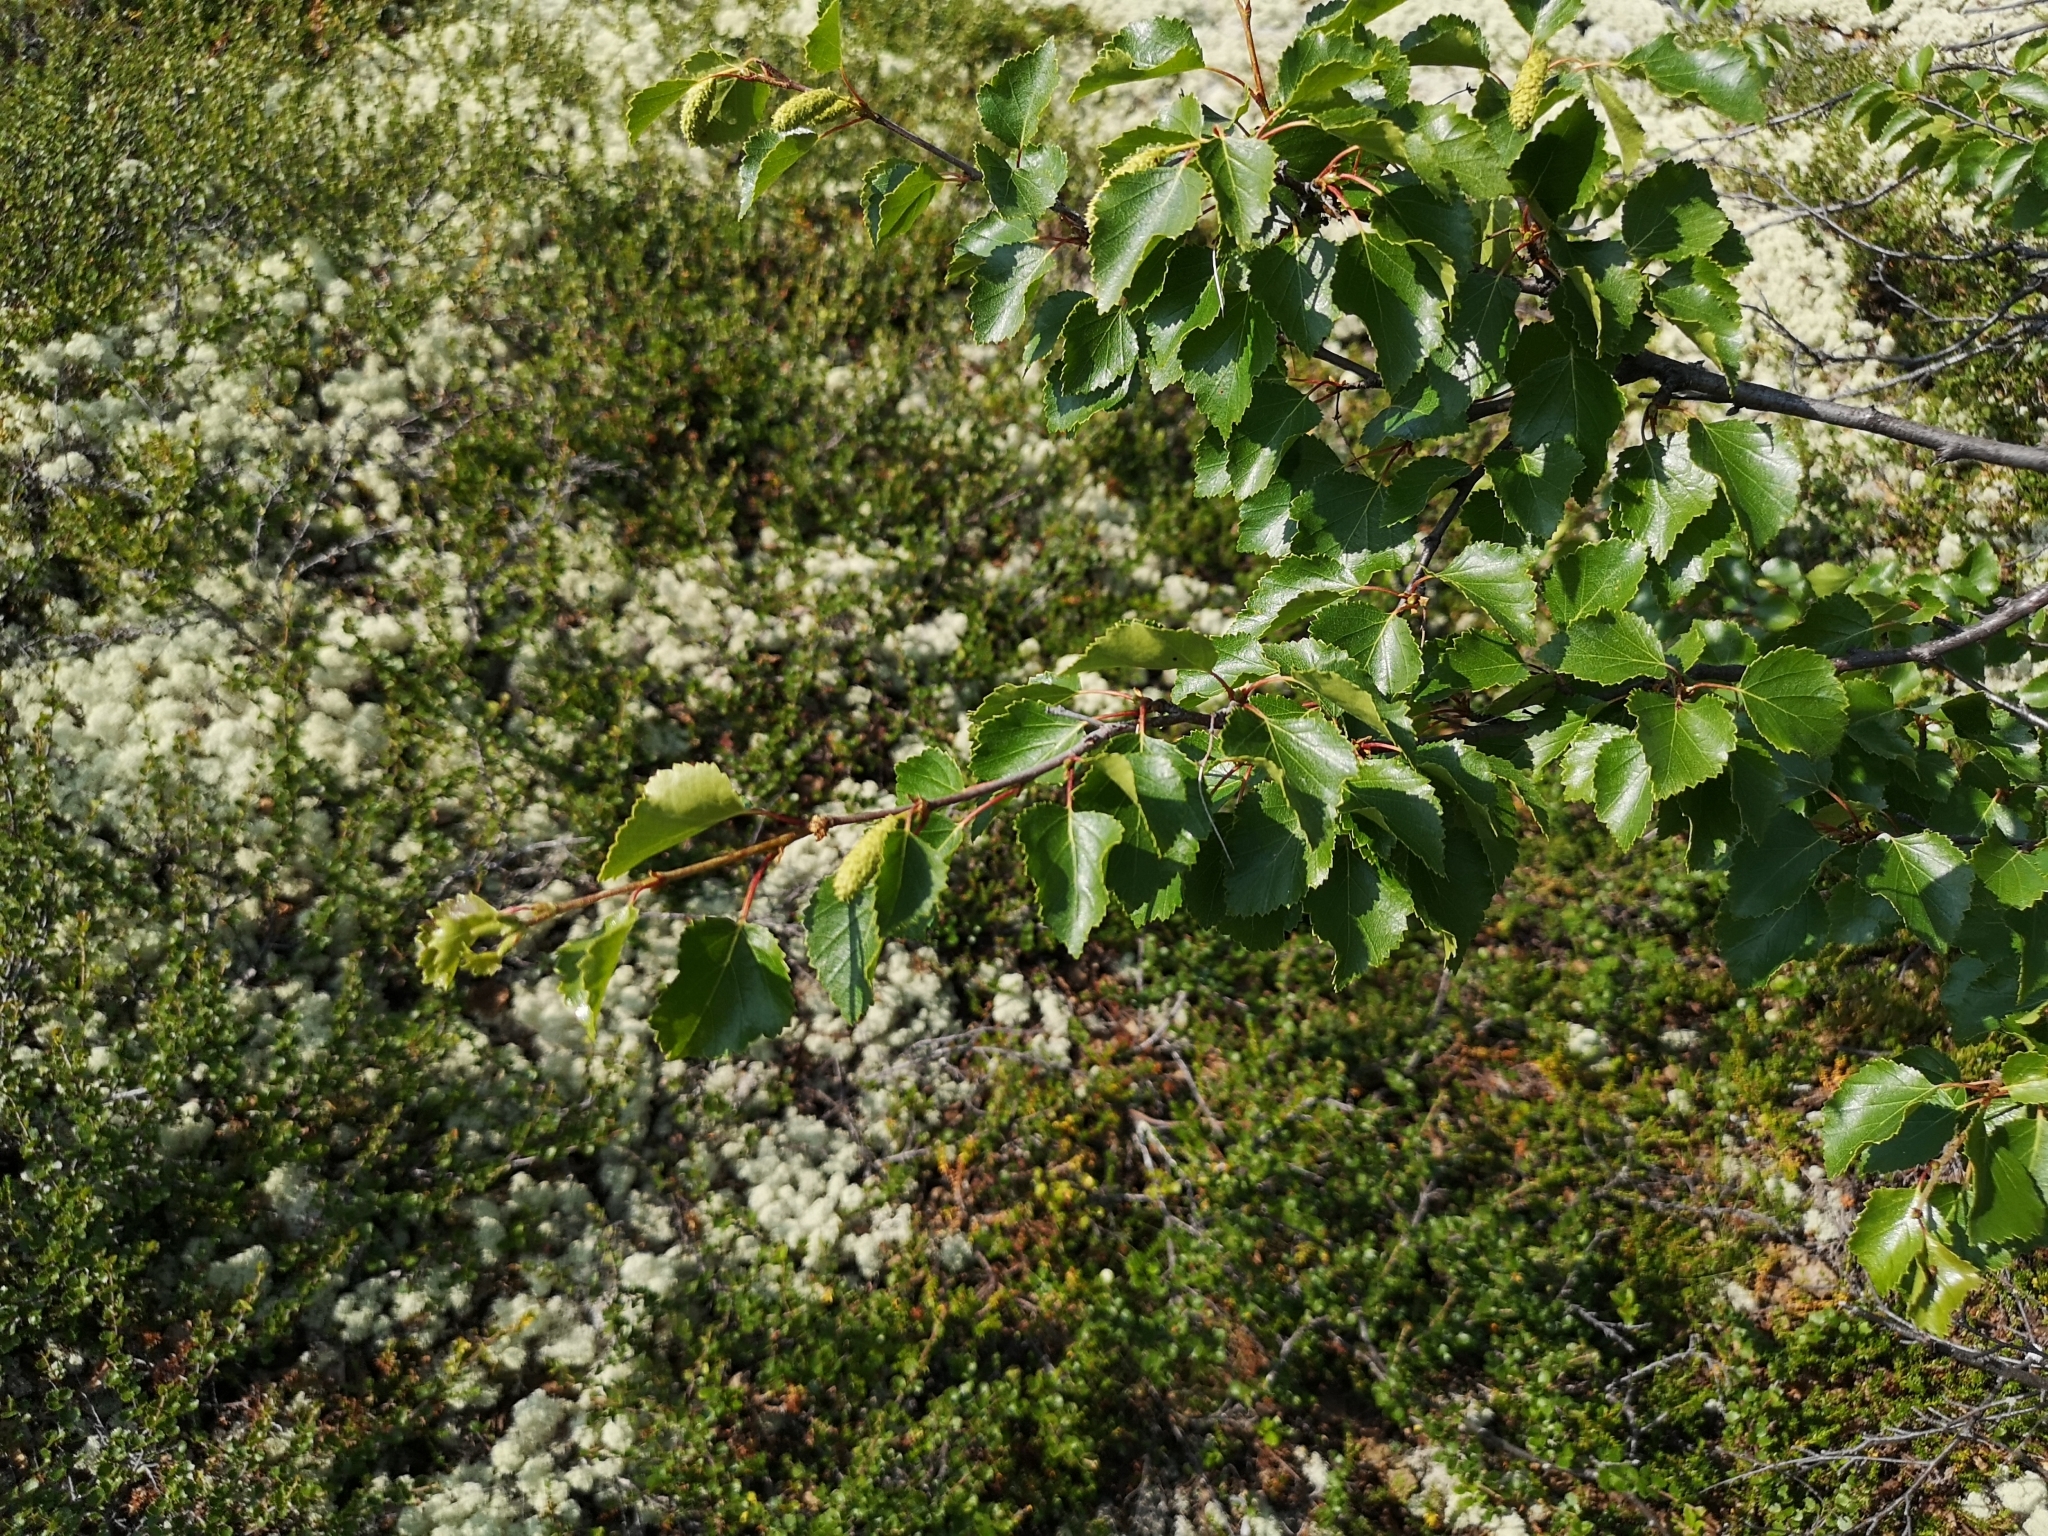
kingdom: Plantae
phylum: Tracheophyta
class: Magnoliopsida
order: Fagales
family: Betulaceae
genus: Betula
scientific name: Betula pubescens
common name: Downy birch
